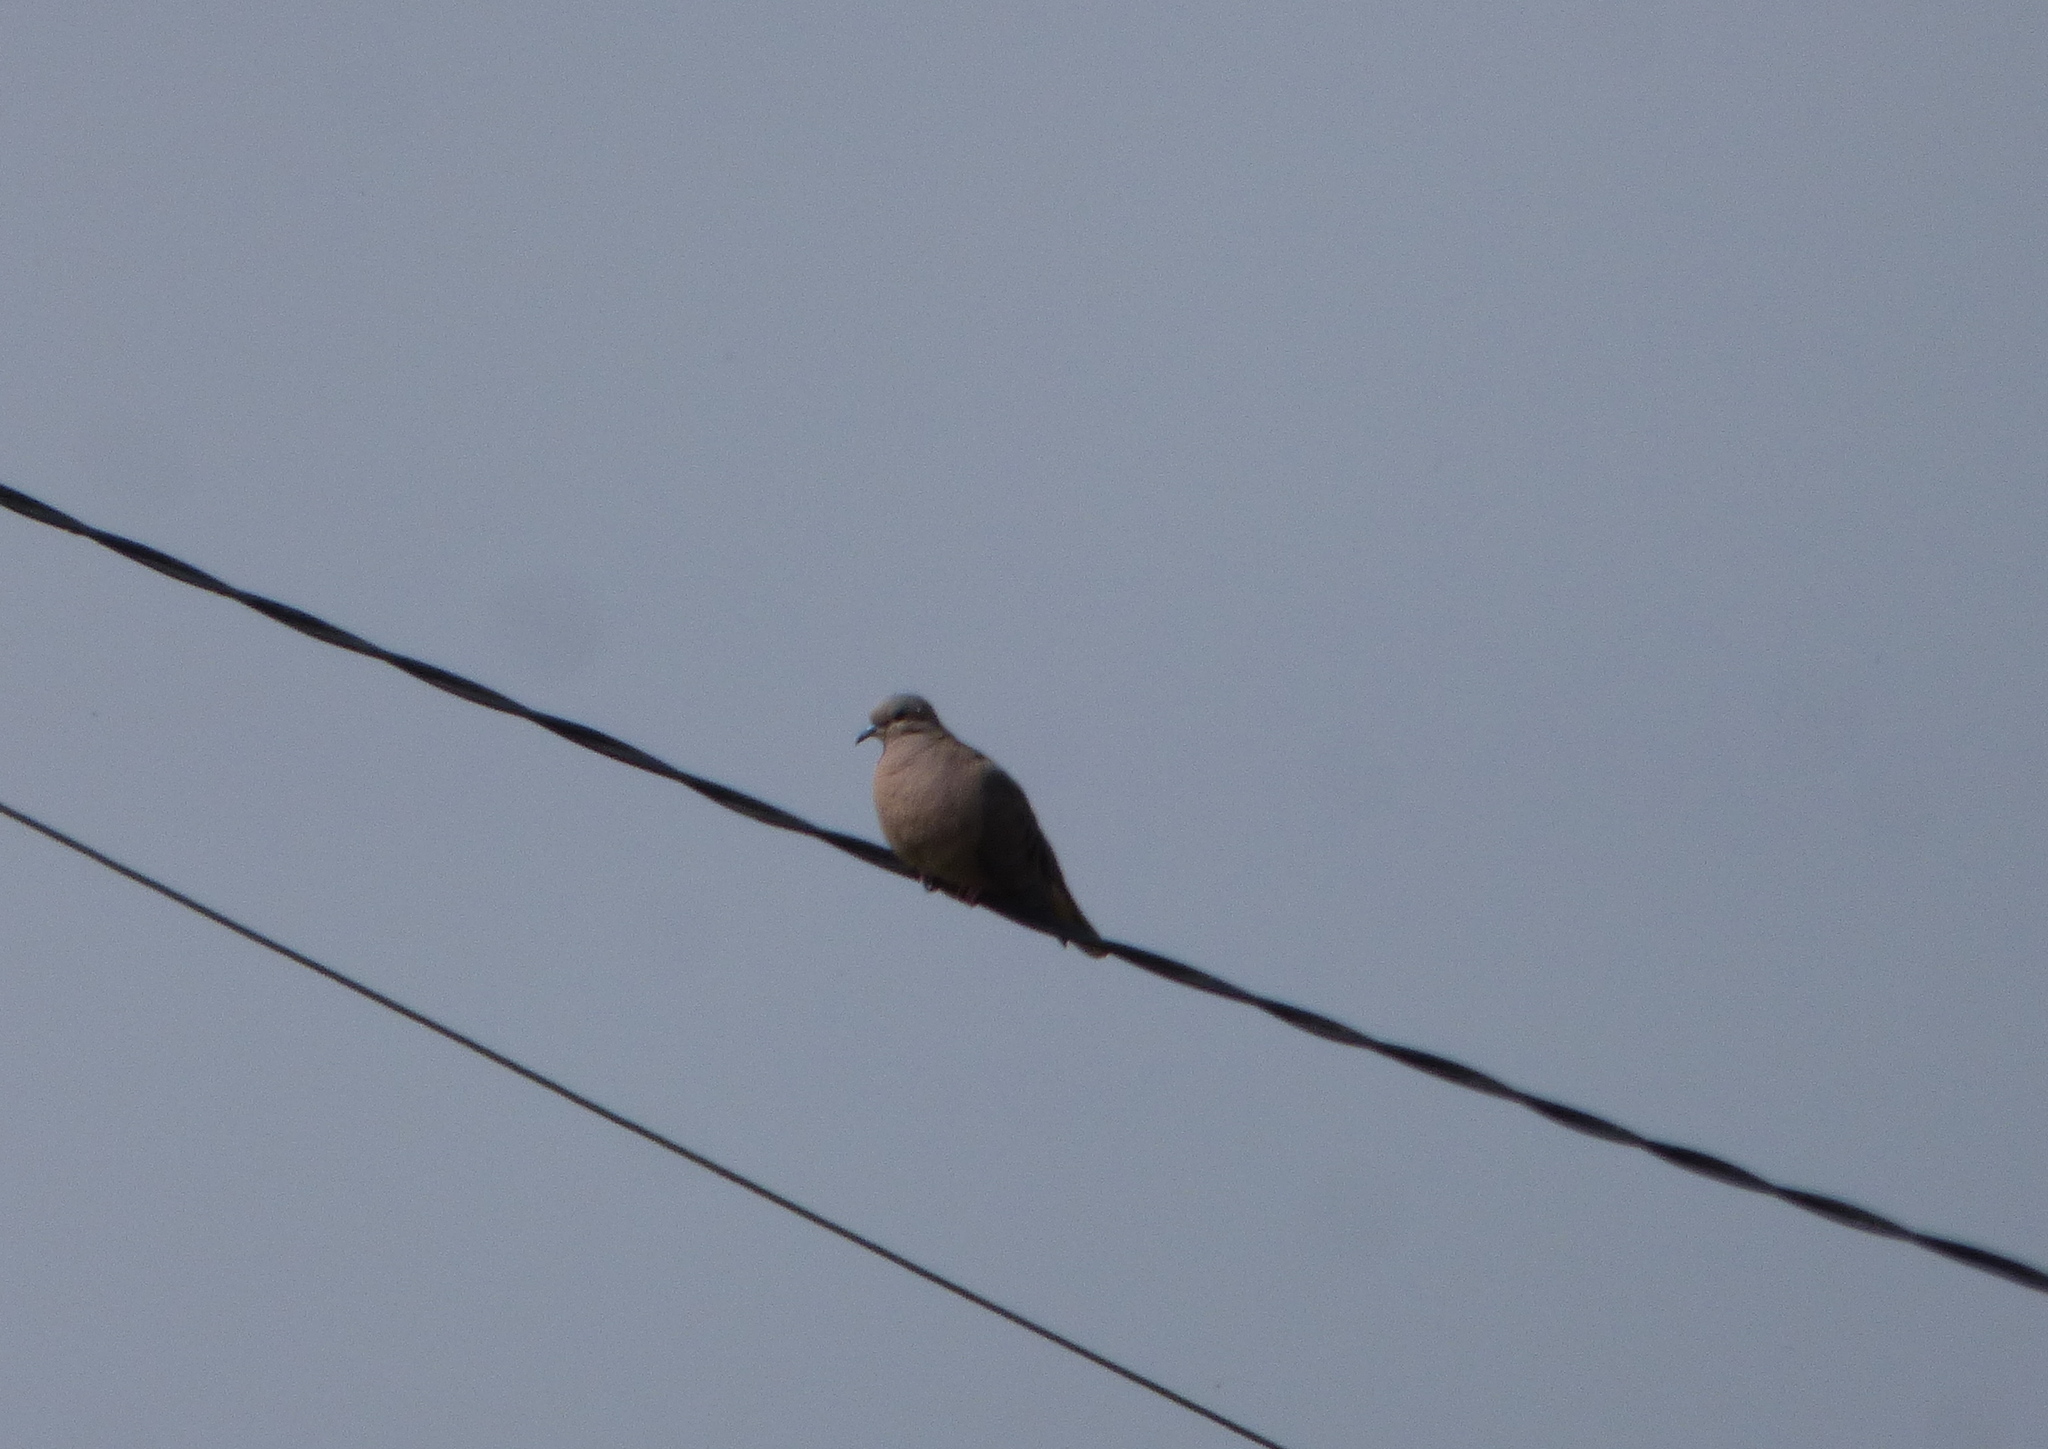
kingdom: Animalia
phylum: Chordata
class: Aves
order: Columbiformes
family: Columbidae
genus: Zenaida
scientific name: Zenaida auriculata
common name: Eared dove
